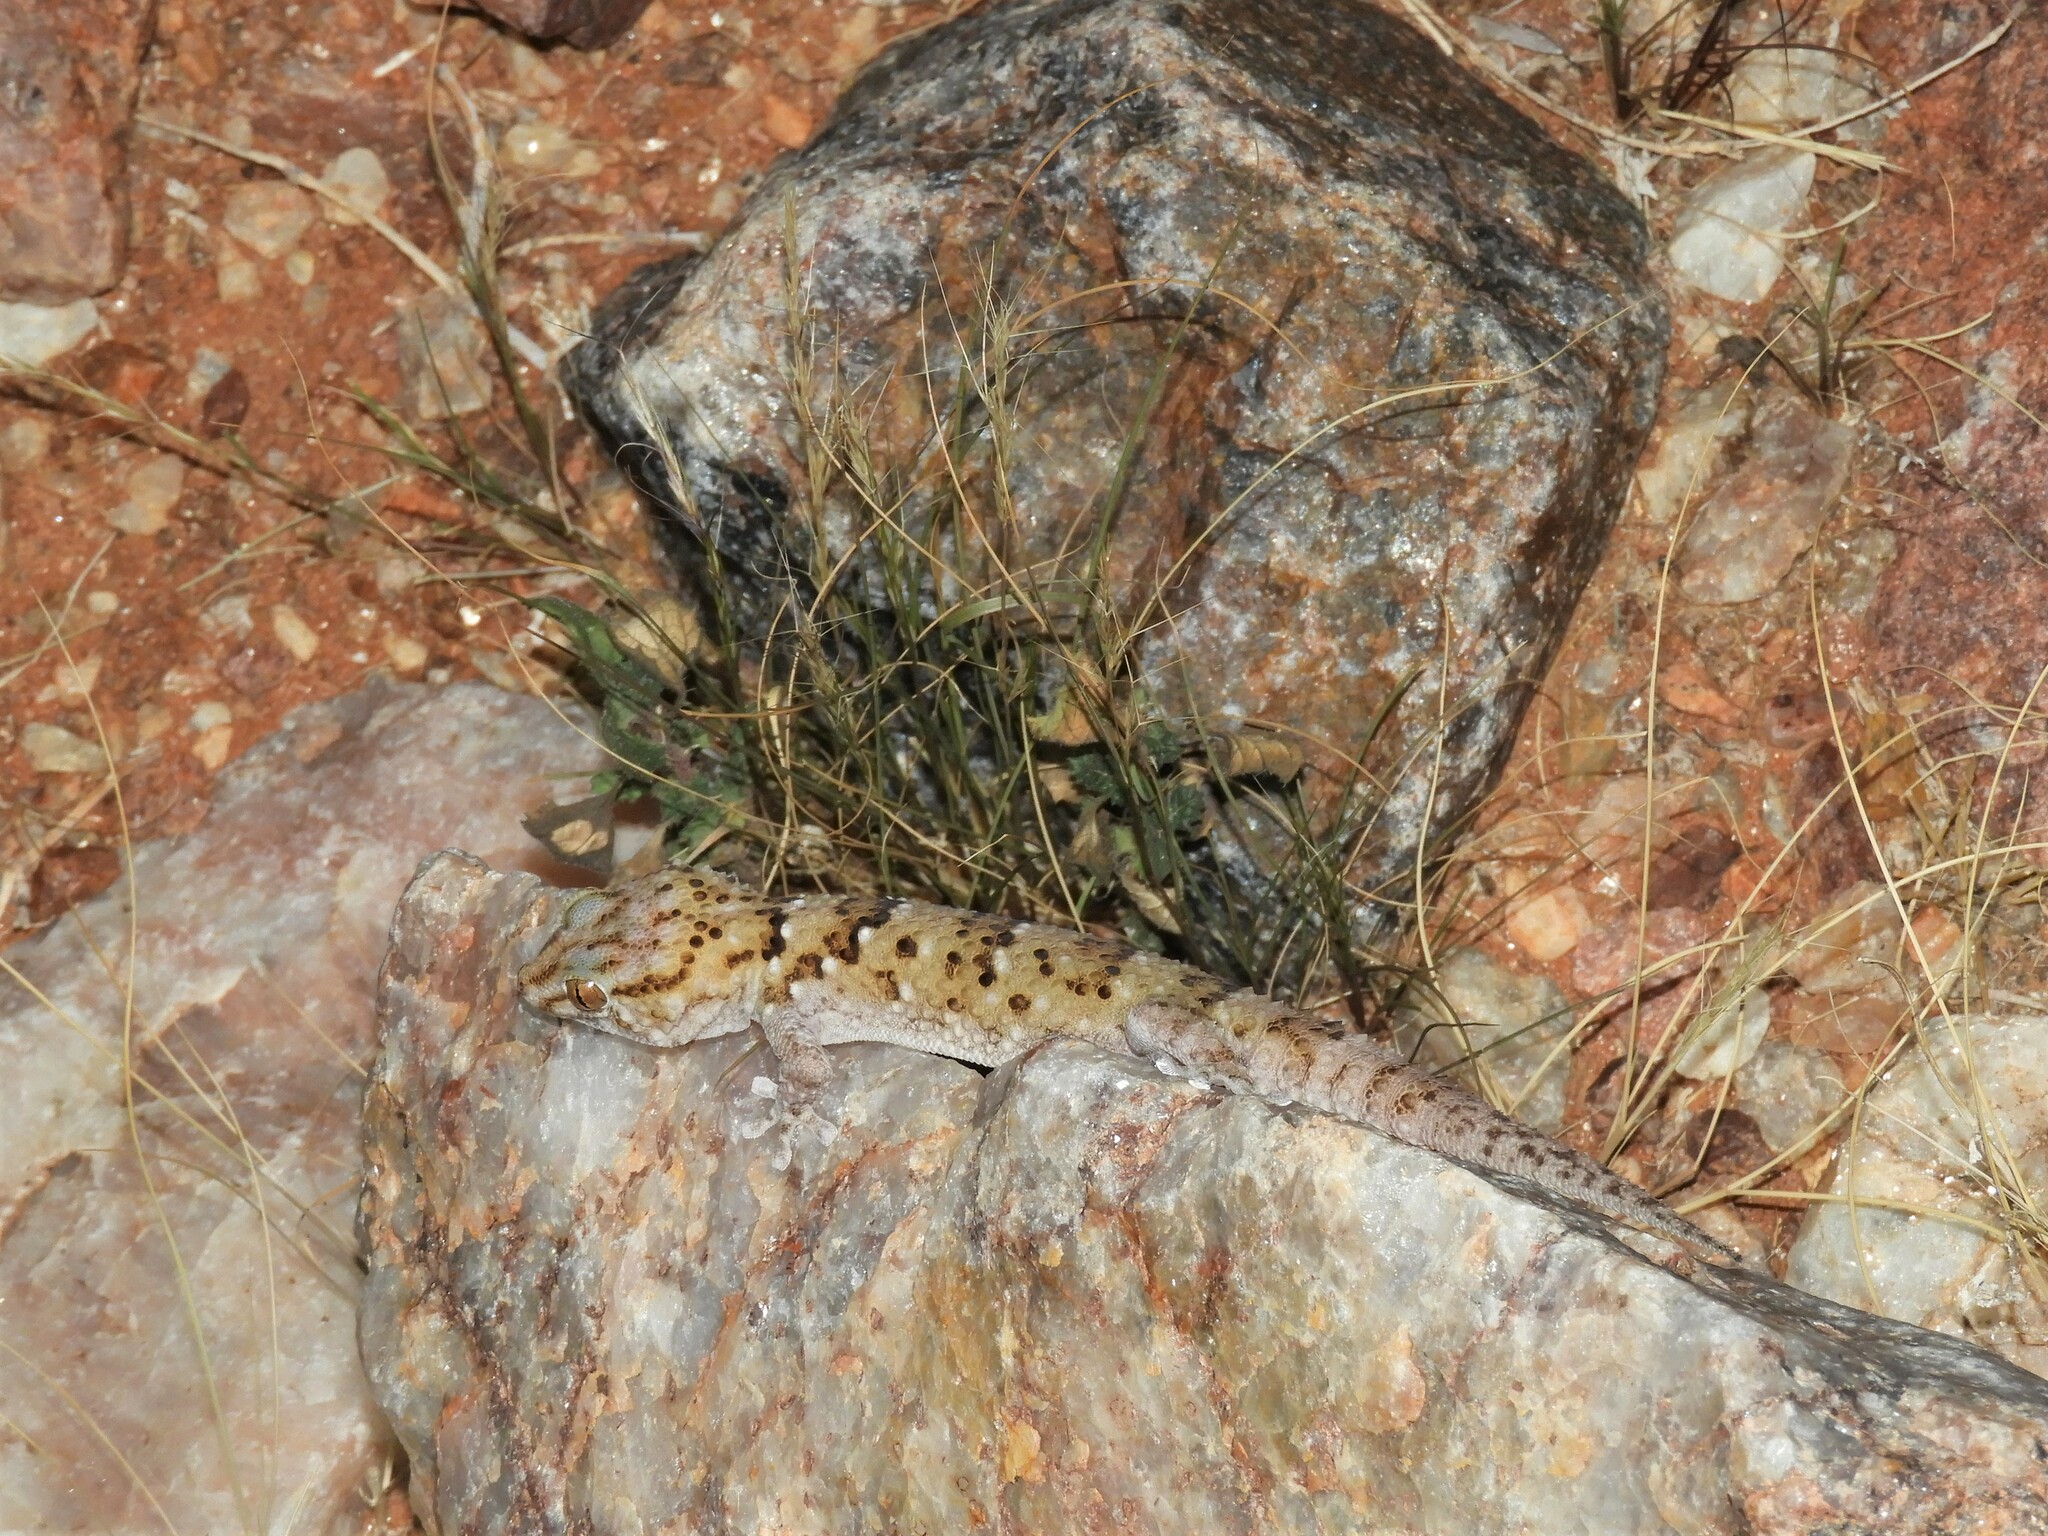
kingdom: Animalia
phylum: Chordata
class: Squamata
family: Gekkonidae
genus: Chondrodactylus
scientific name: Chondrodactylus laevigatus
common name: Fischer's thick-toed gecko
